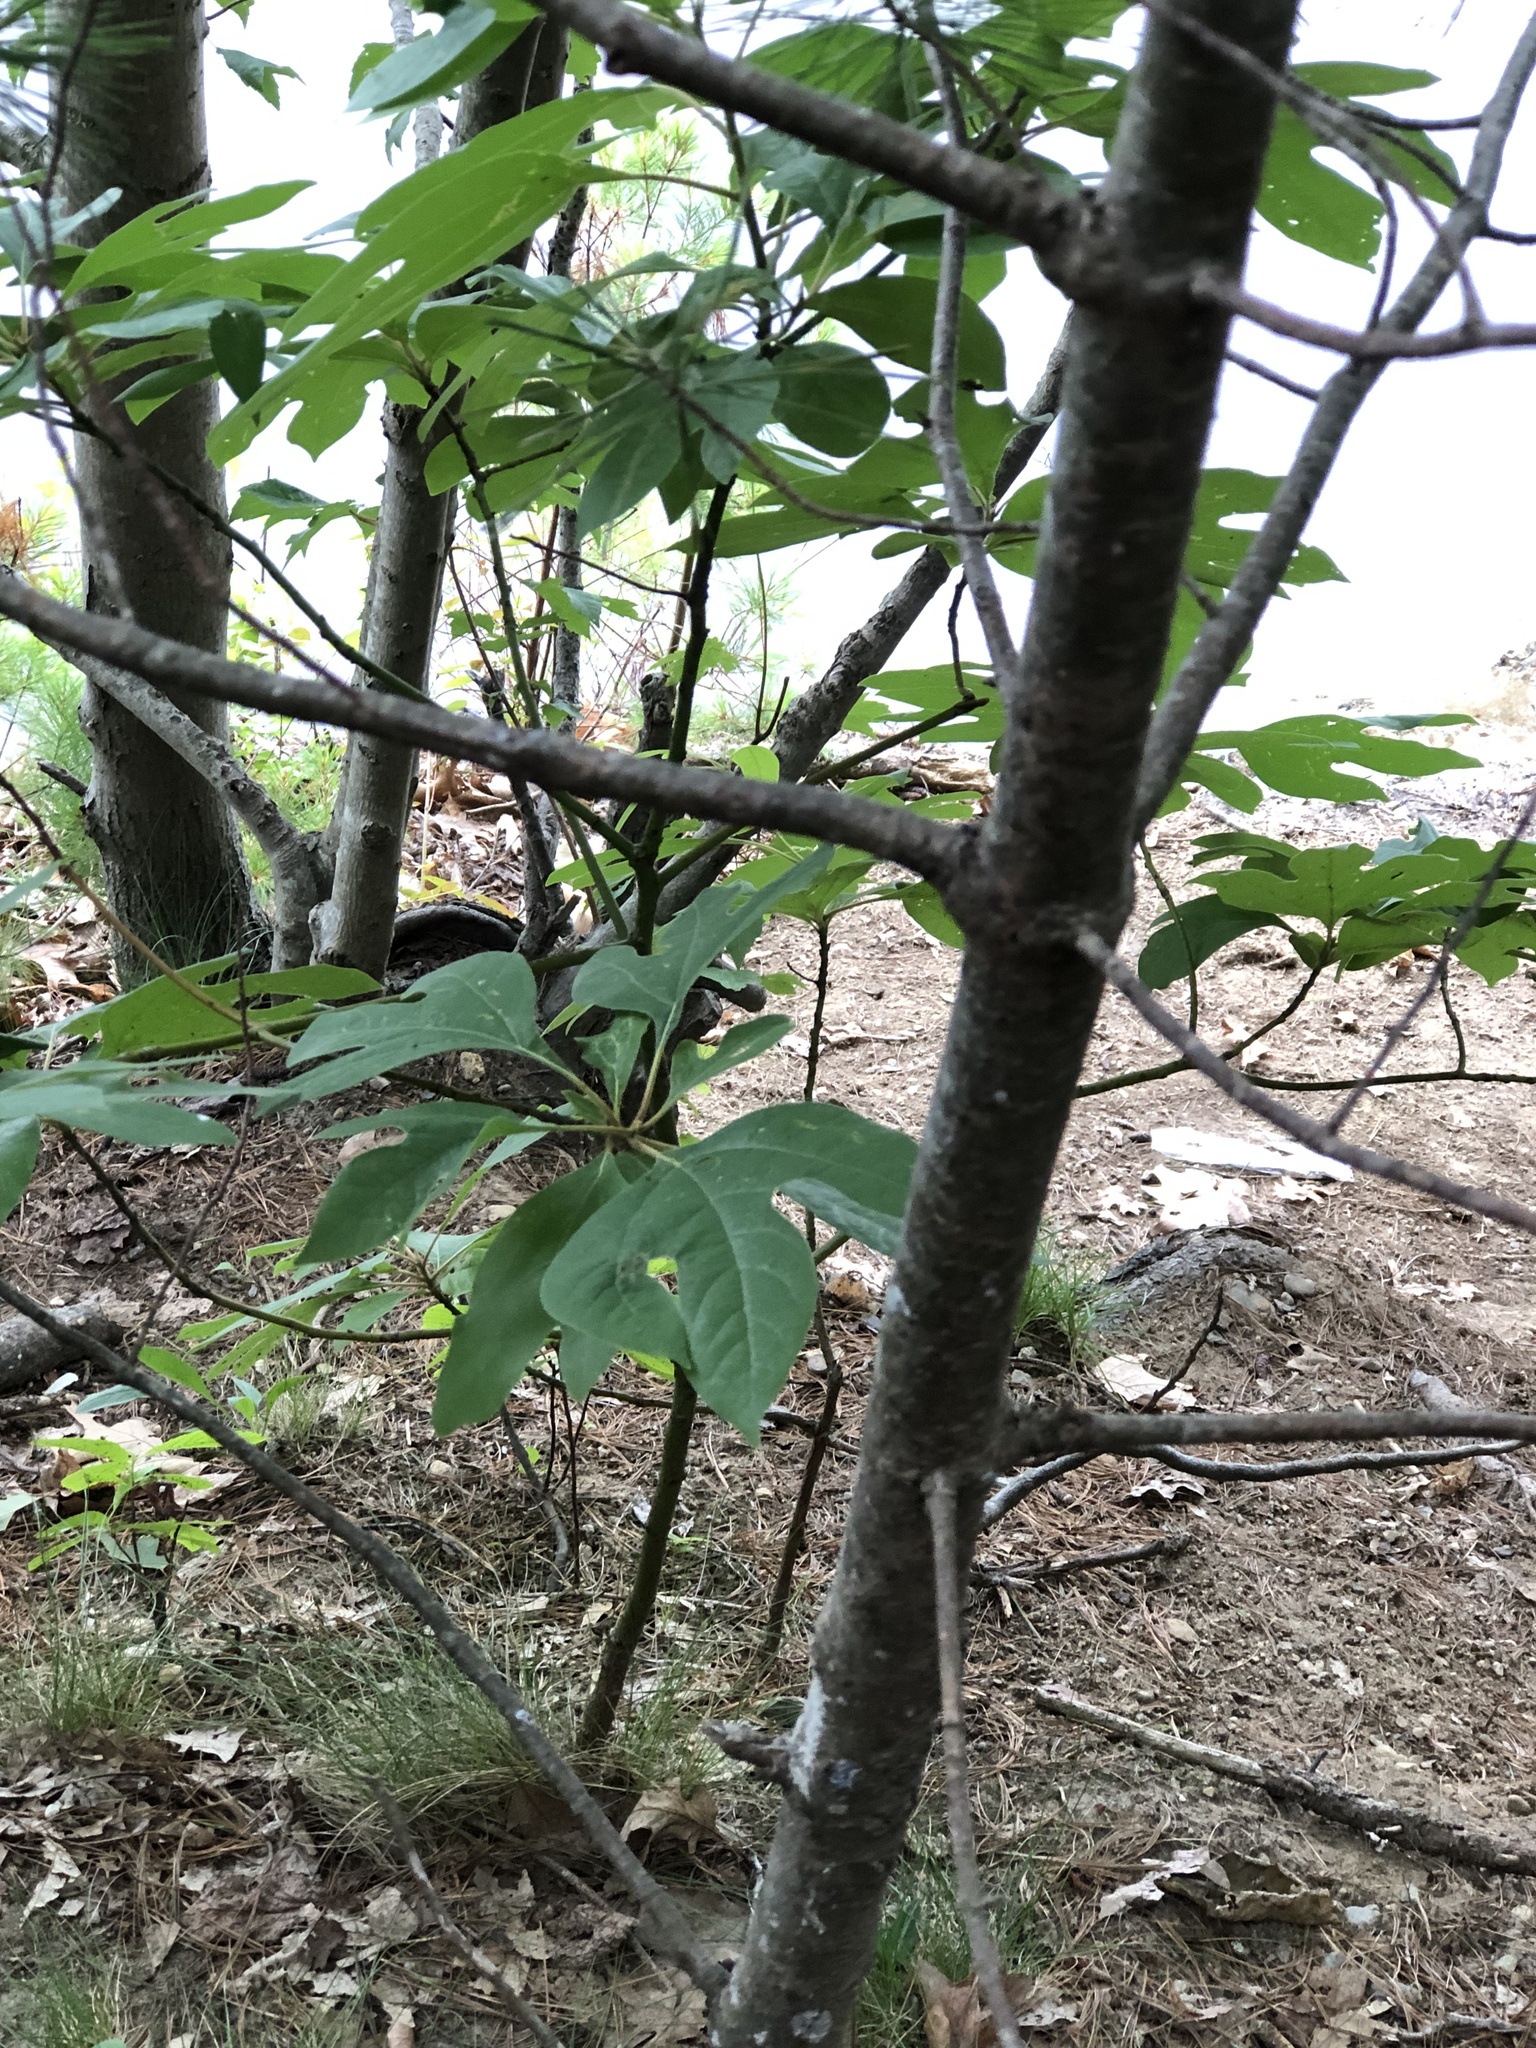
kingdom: Plantae
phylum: Tracheophyta
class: Magnoliopsida
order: Laurales
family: Lauraceae
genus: Sassafras
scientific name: Sassafras albidum
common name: Sassafras
